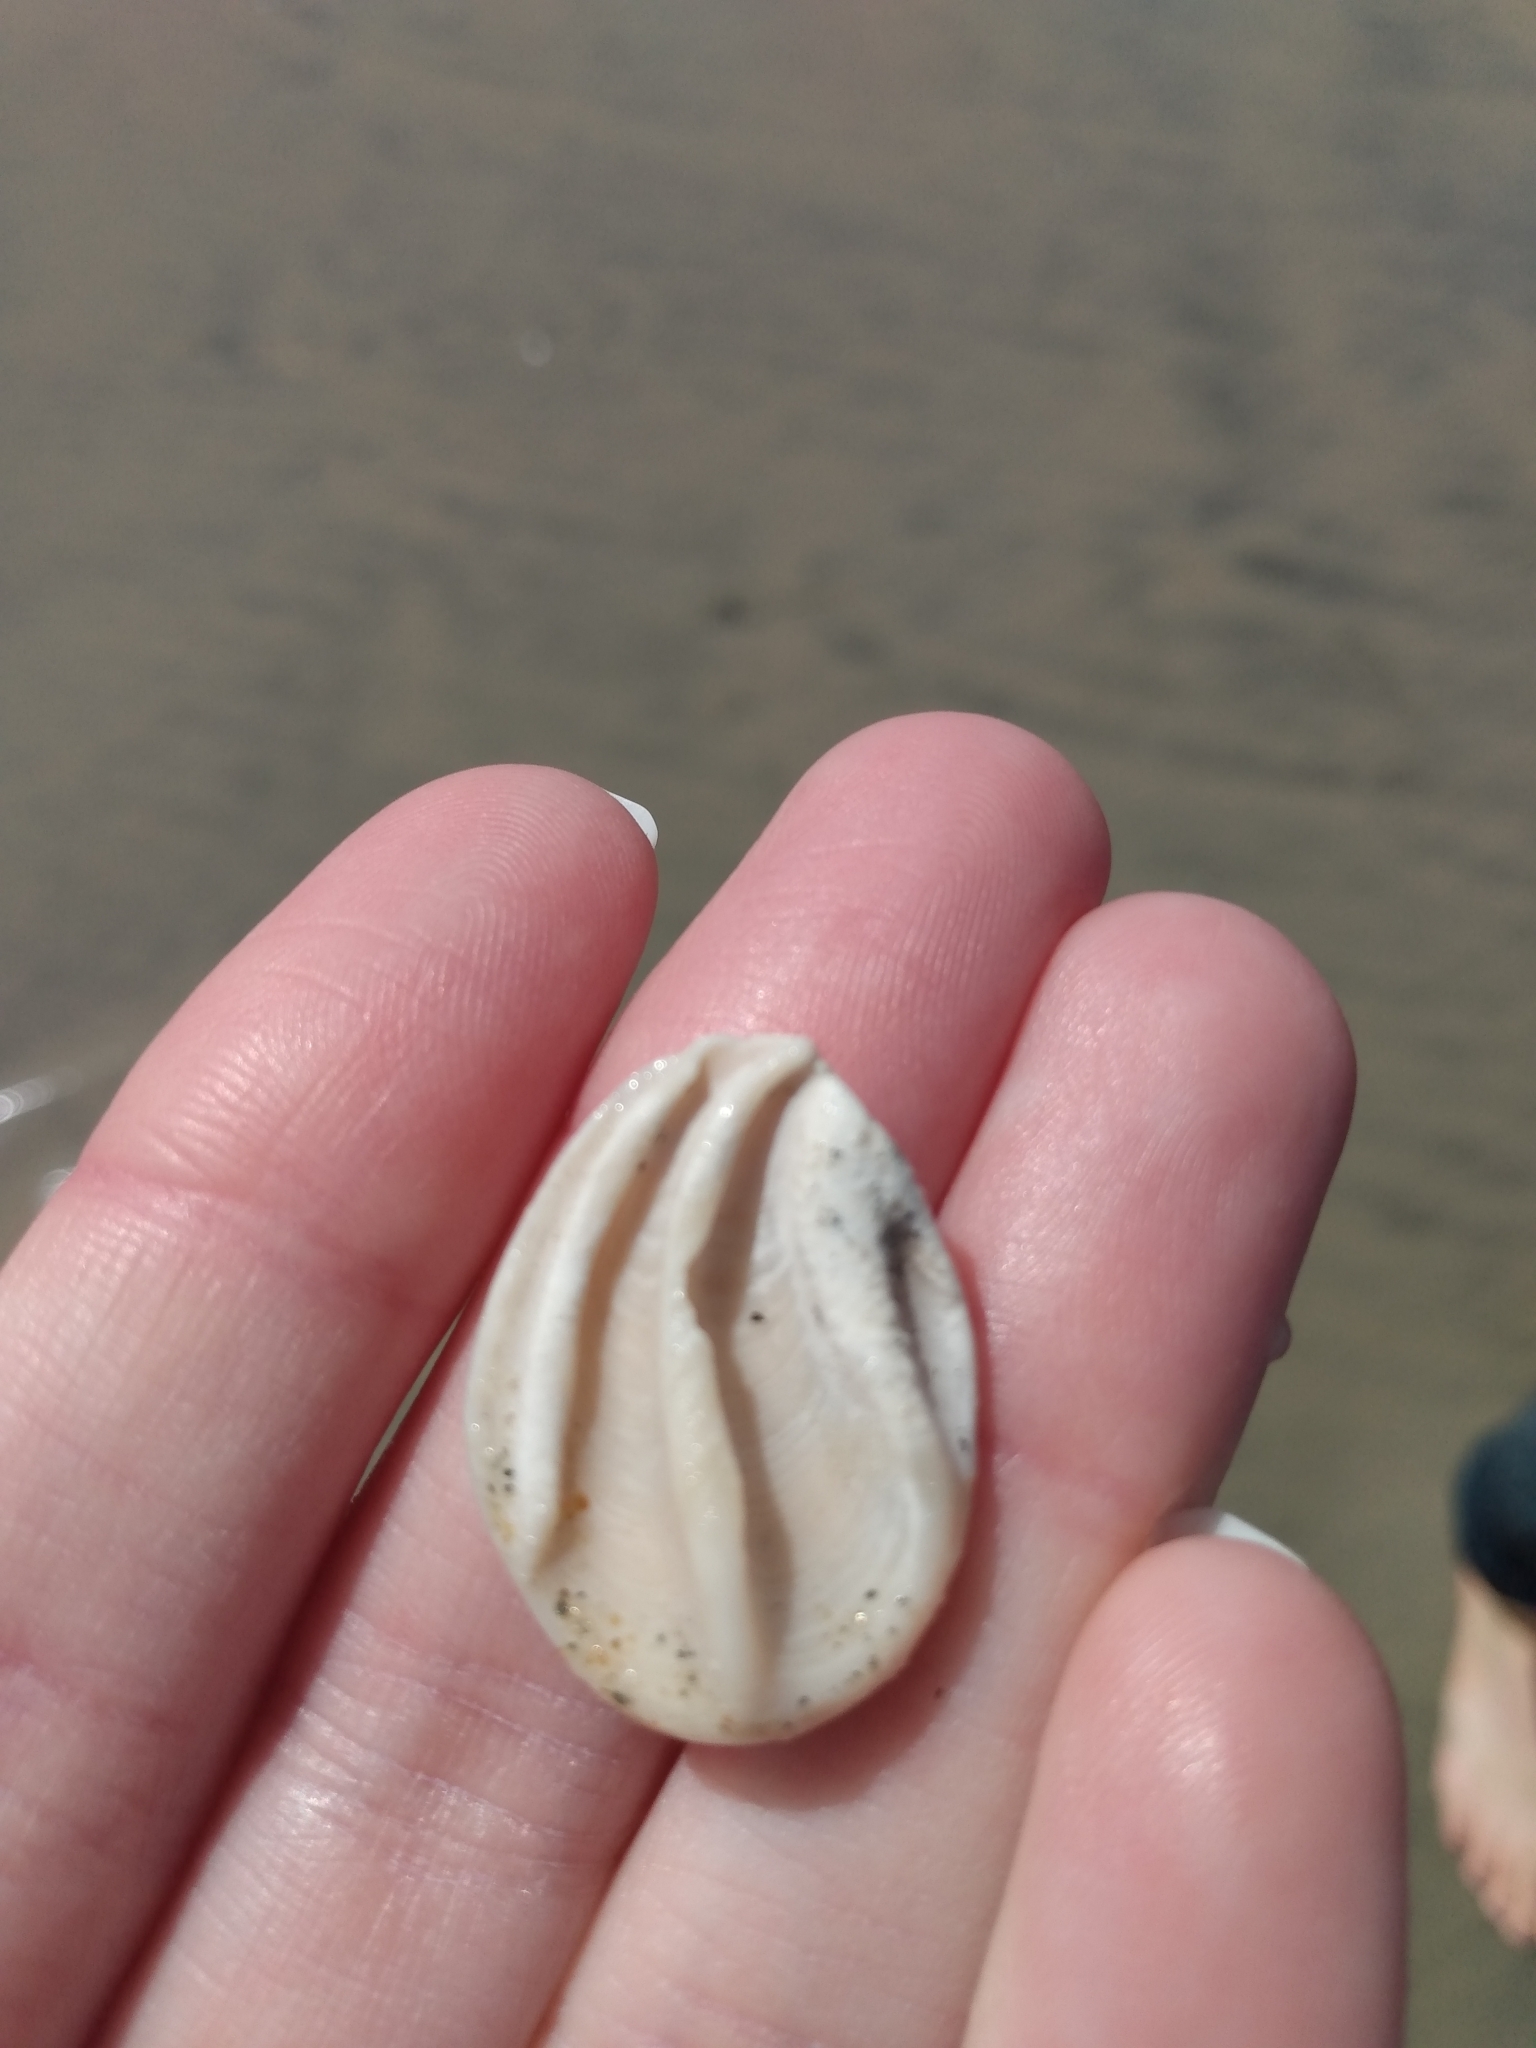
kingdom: Animalia
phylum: Mollusca
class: Gastropoda
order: Trochida
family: Turbinidae
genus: Megastraea
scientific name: Megastraea undosa
